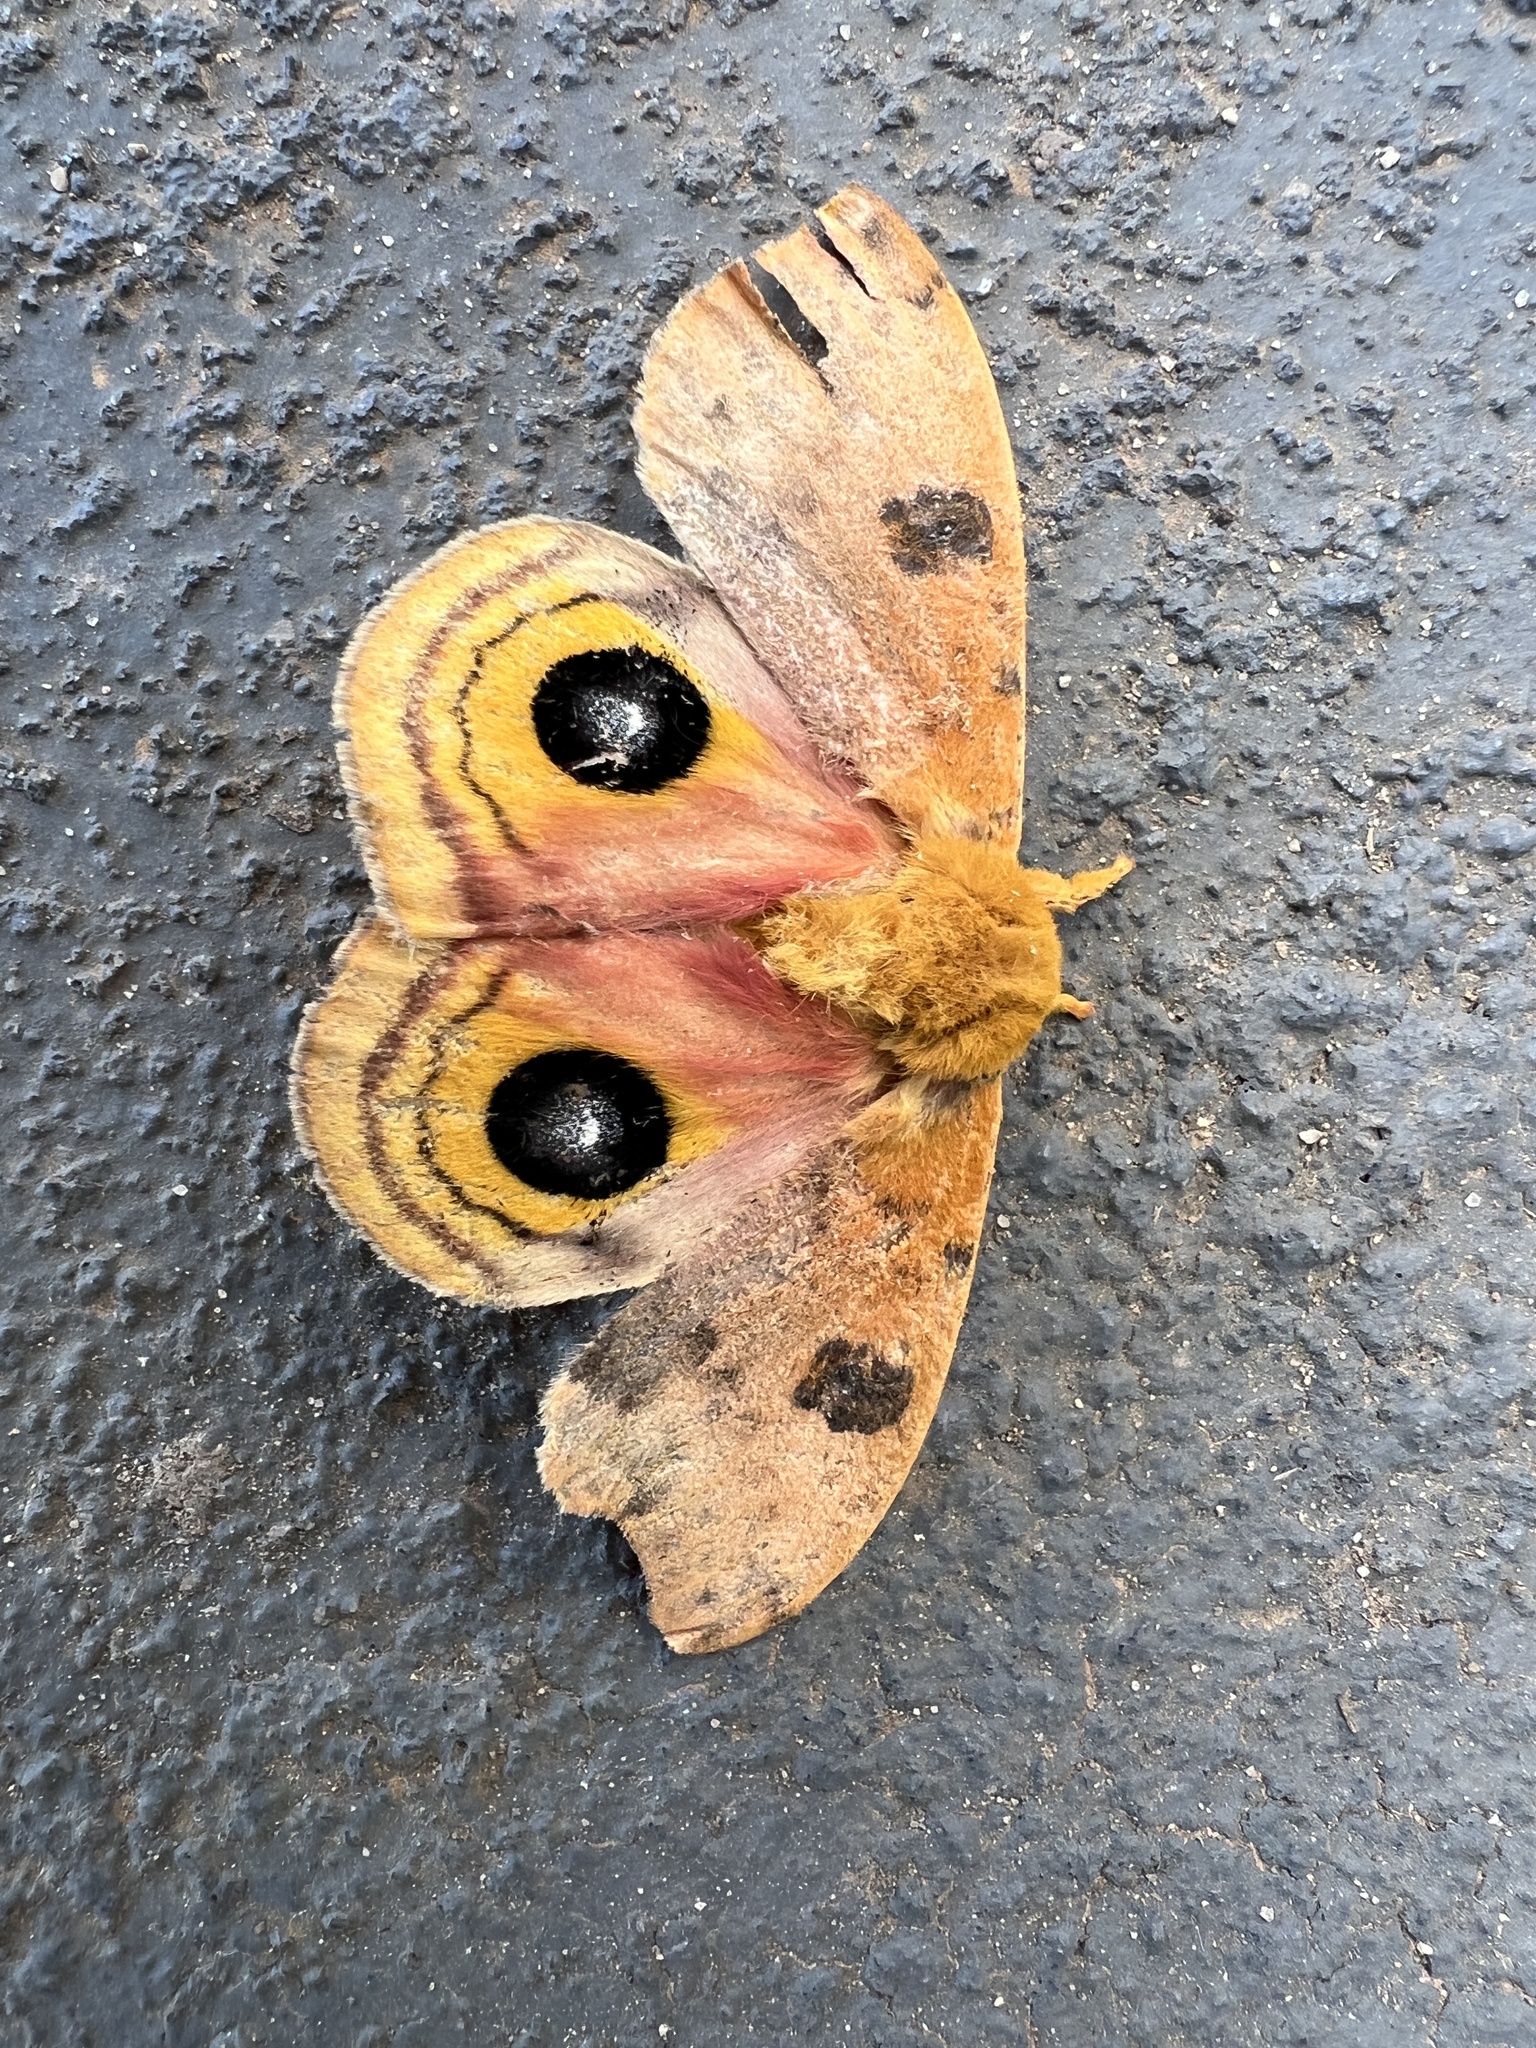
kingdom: Animalia
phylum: Arthropoda
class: Insecta
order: Lepidoptera
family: Saturniidae
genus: Automeris
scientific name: Automeris io
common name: Io moth
